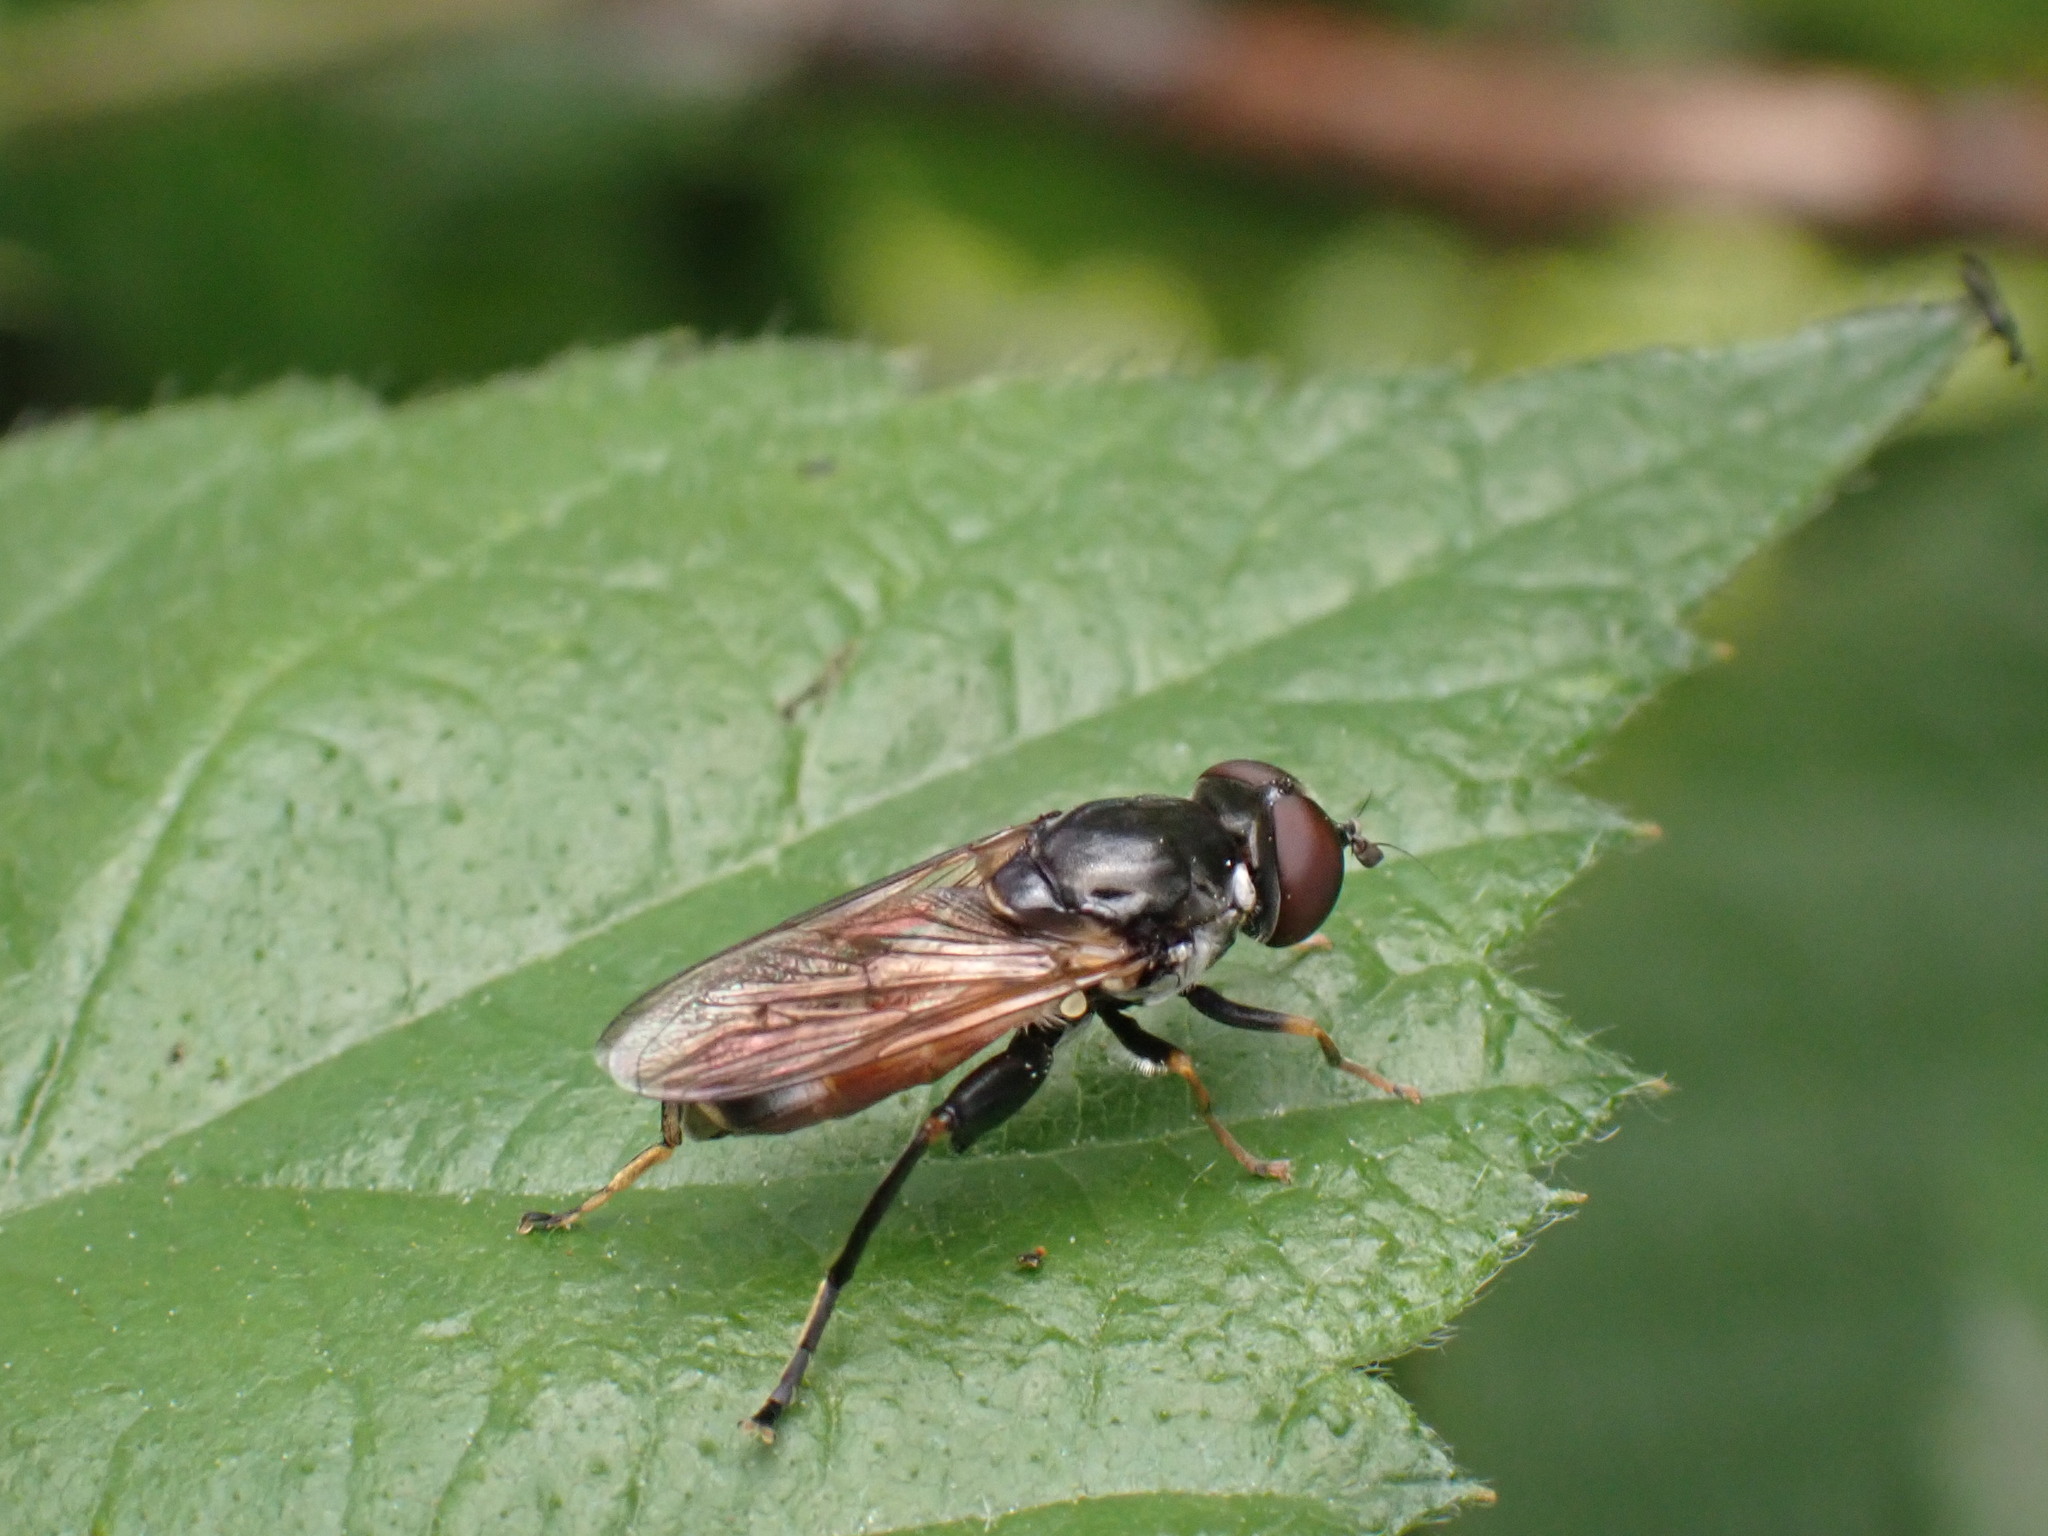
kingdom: Animalia
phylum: Arthropoda
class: Insecta
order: Diptera
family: Syrphidae
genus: Tropidia
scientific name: Tropidia scita
